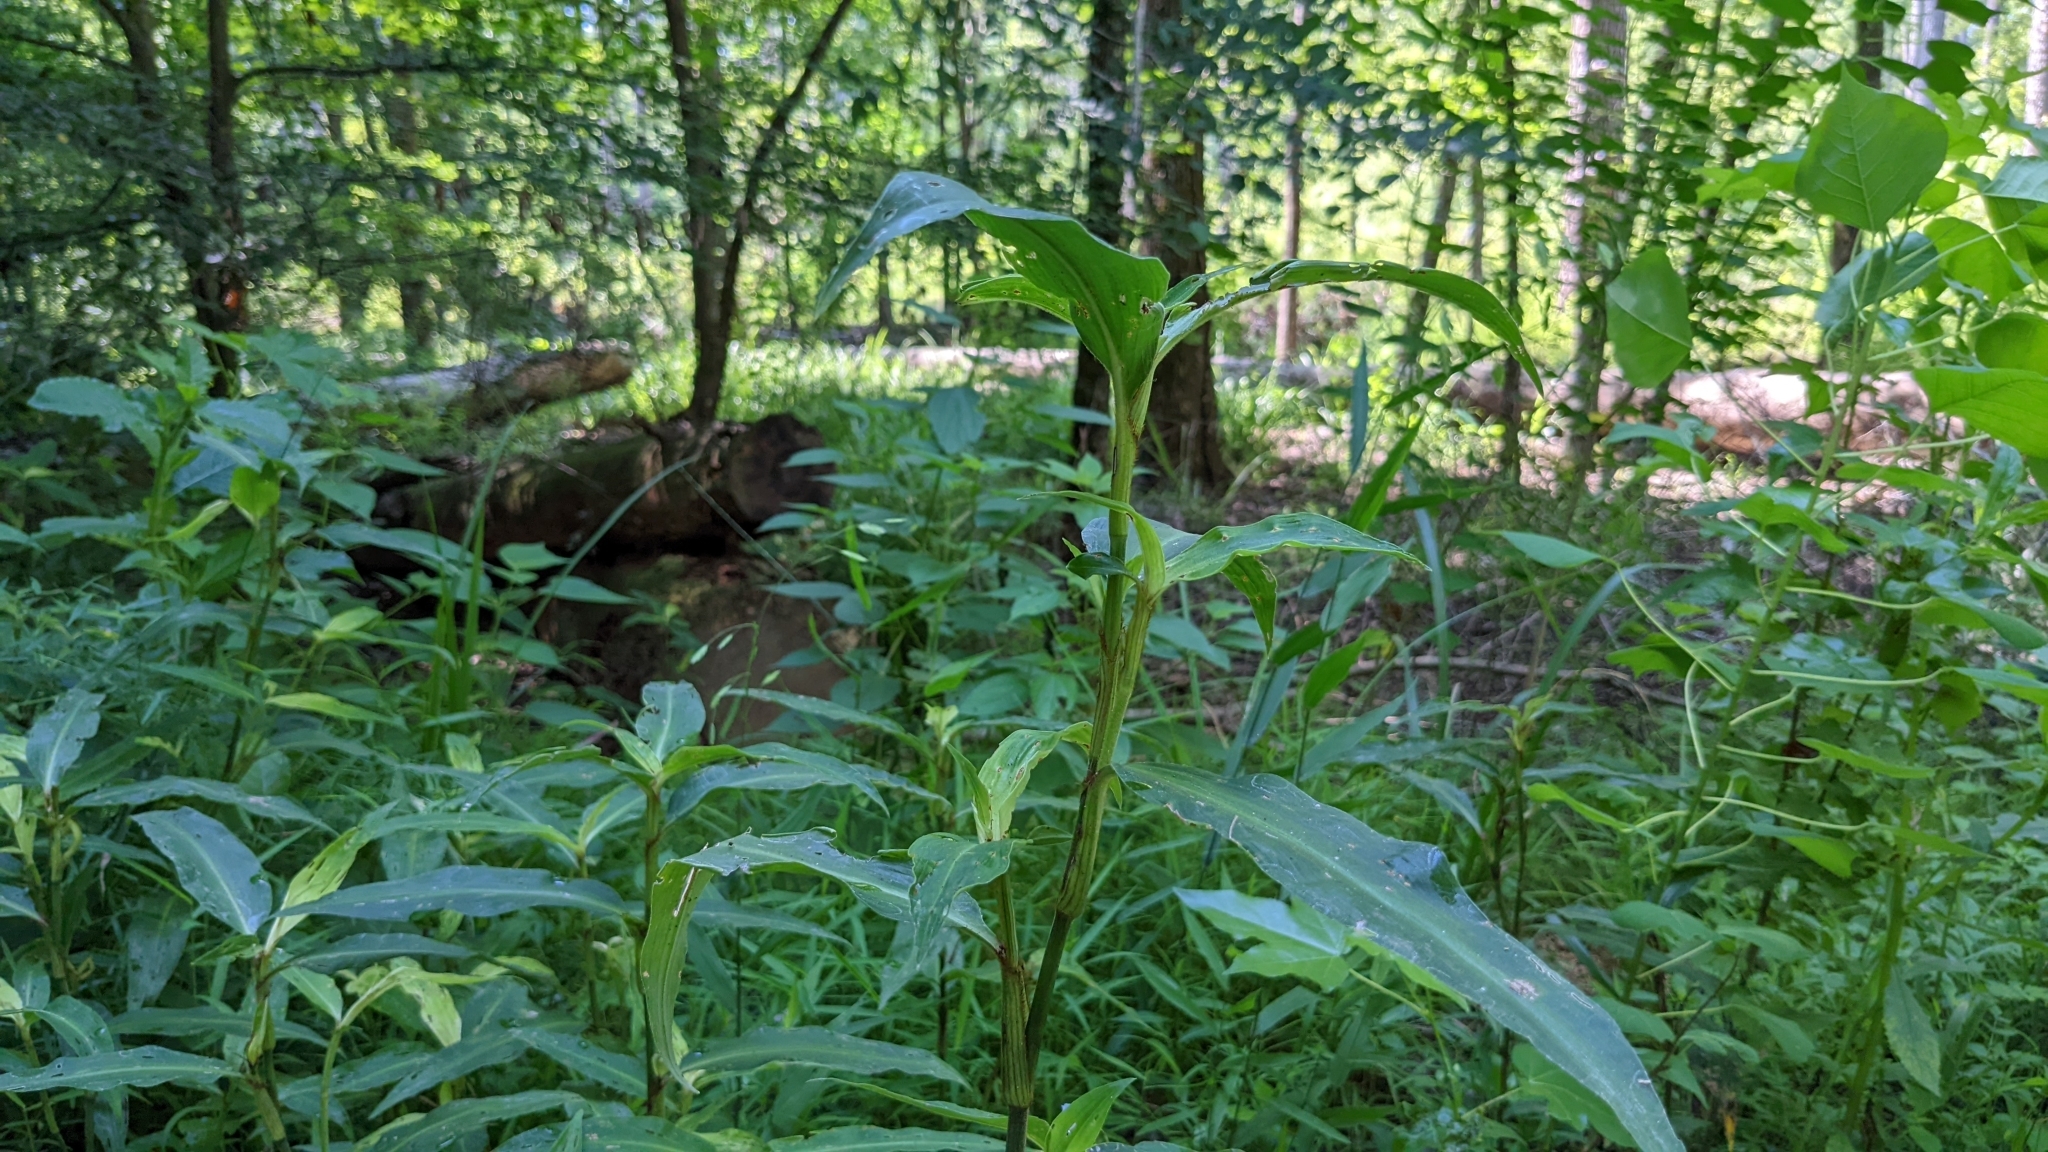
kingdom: Plantae
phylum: Tracheophyta
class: Liliopsida
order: Commelinales
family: Commelinaceae
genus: Commelina
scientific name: Commelina virginica
